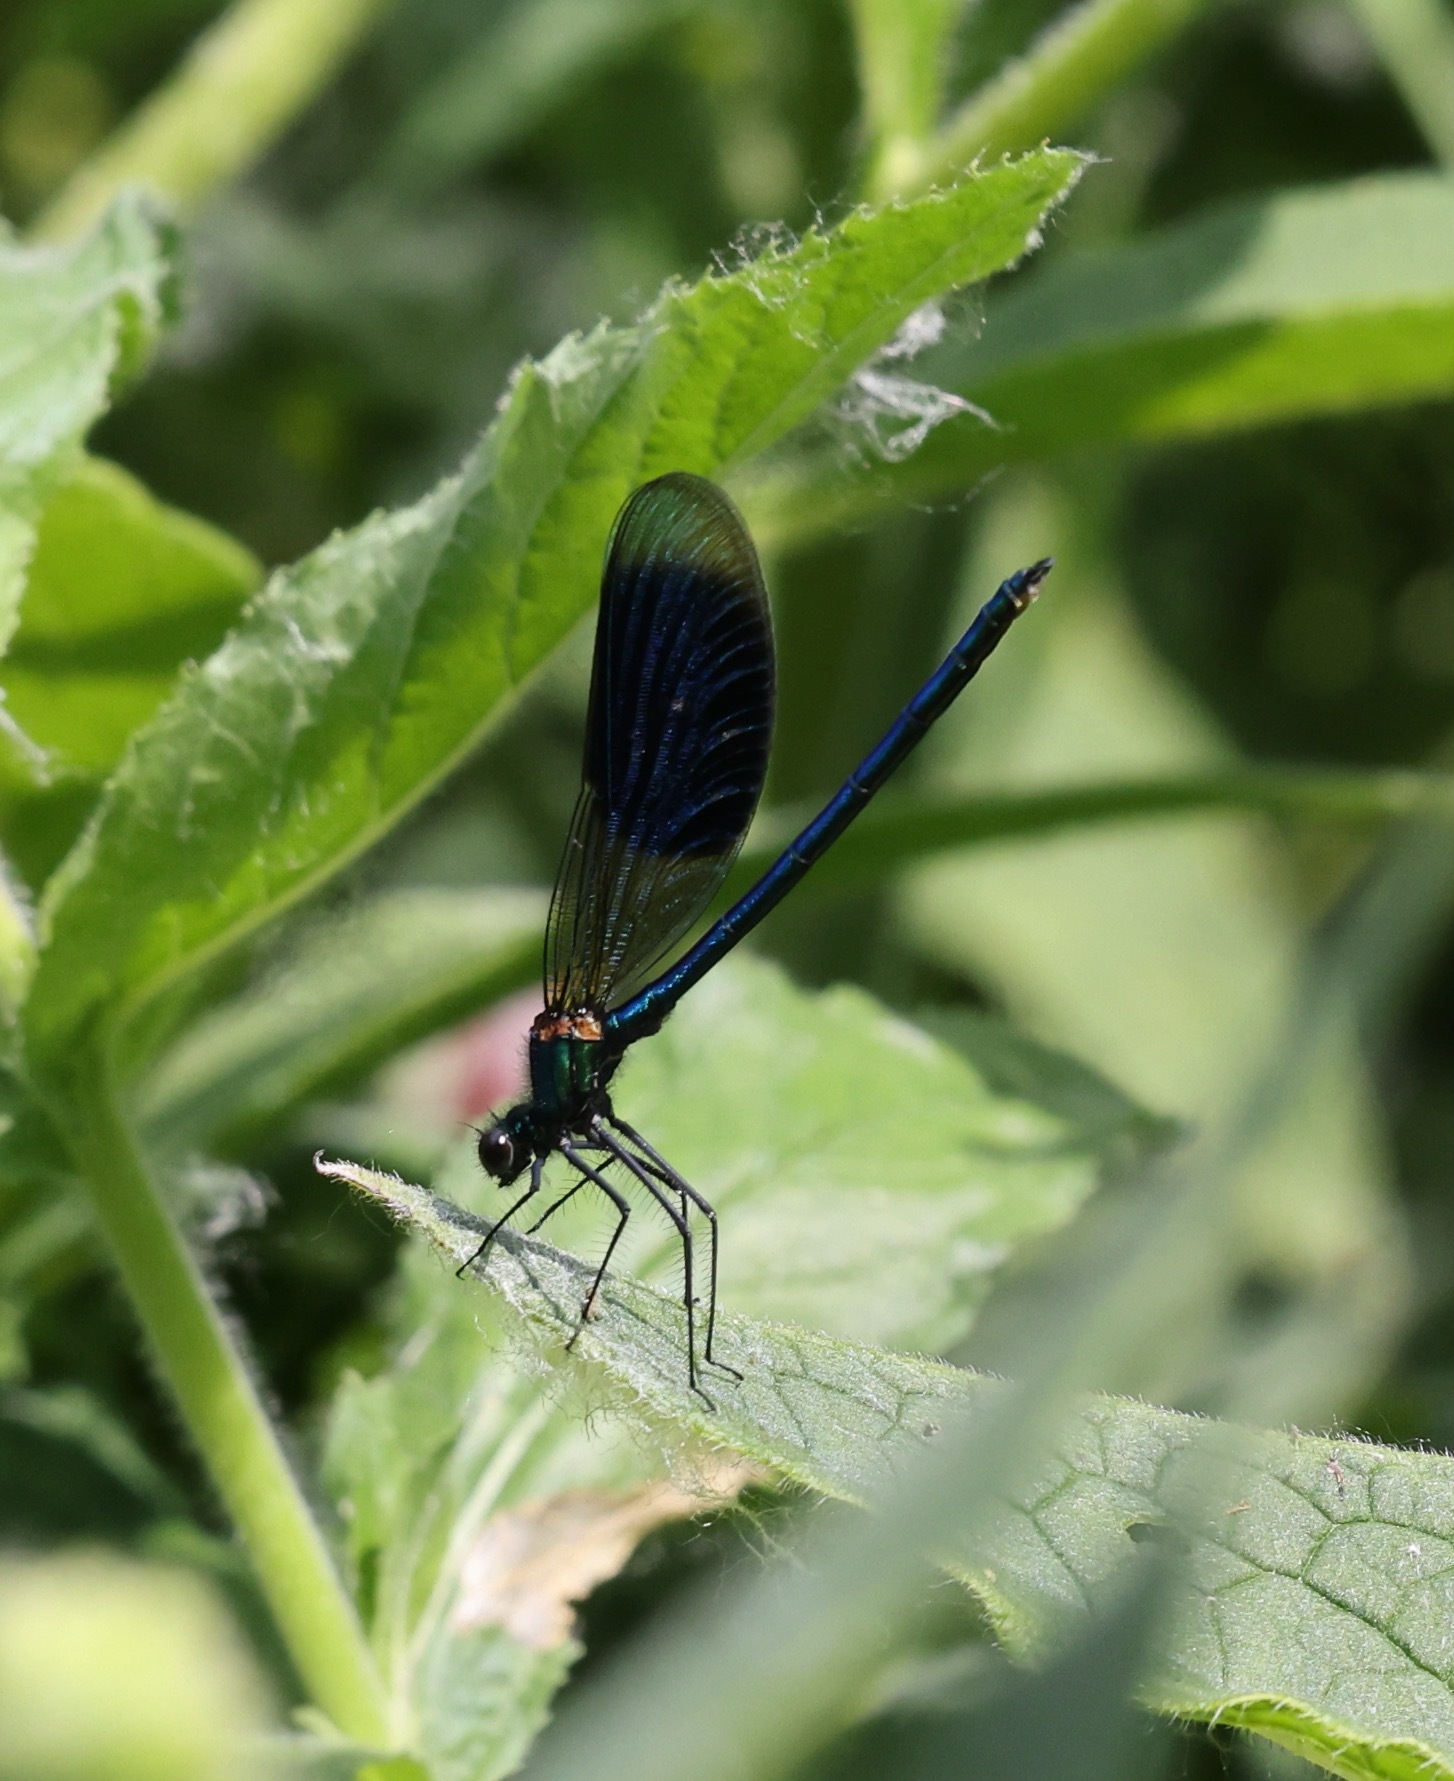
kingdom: Animalia
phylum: Arthropoda
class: Insecta
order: Odonata
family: Calopterygidae
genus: Calopteryx
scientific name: Calopteryx splendens
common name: Banded demoiselle
